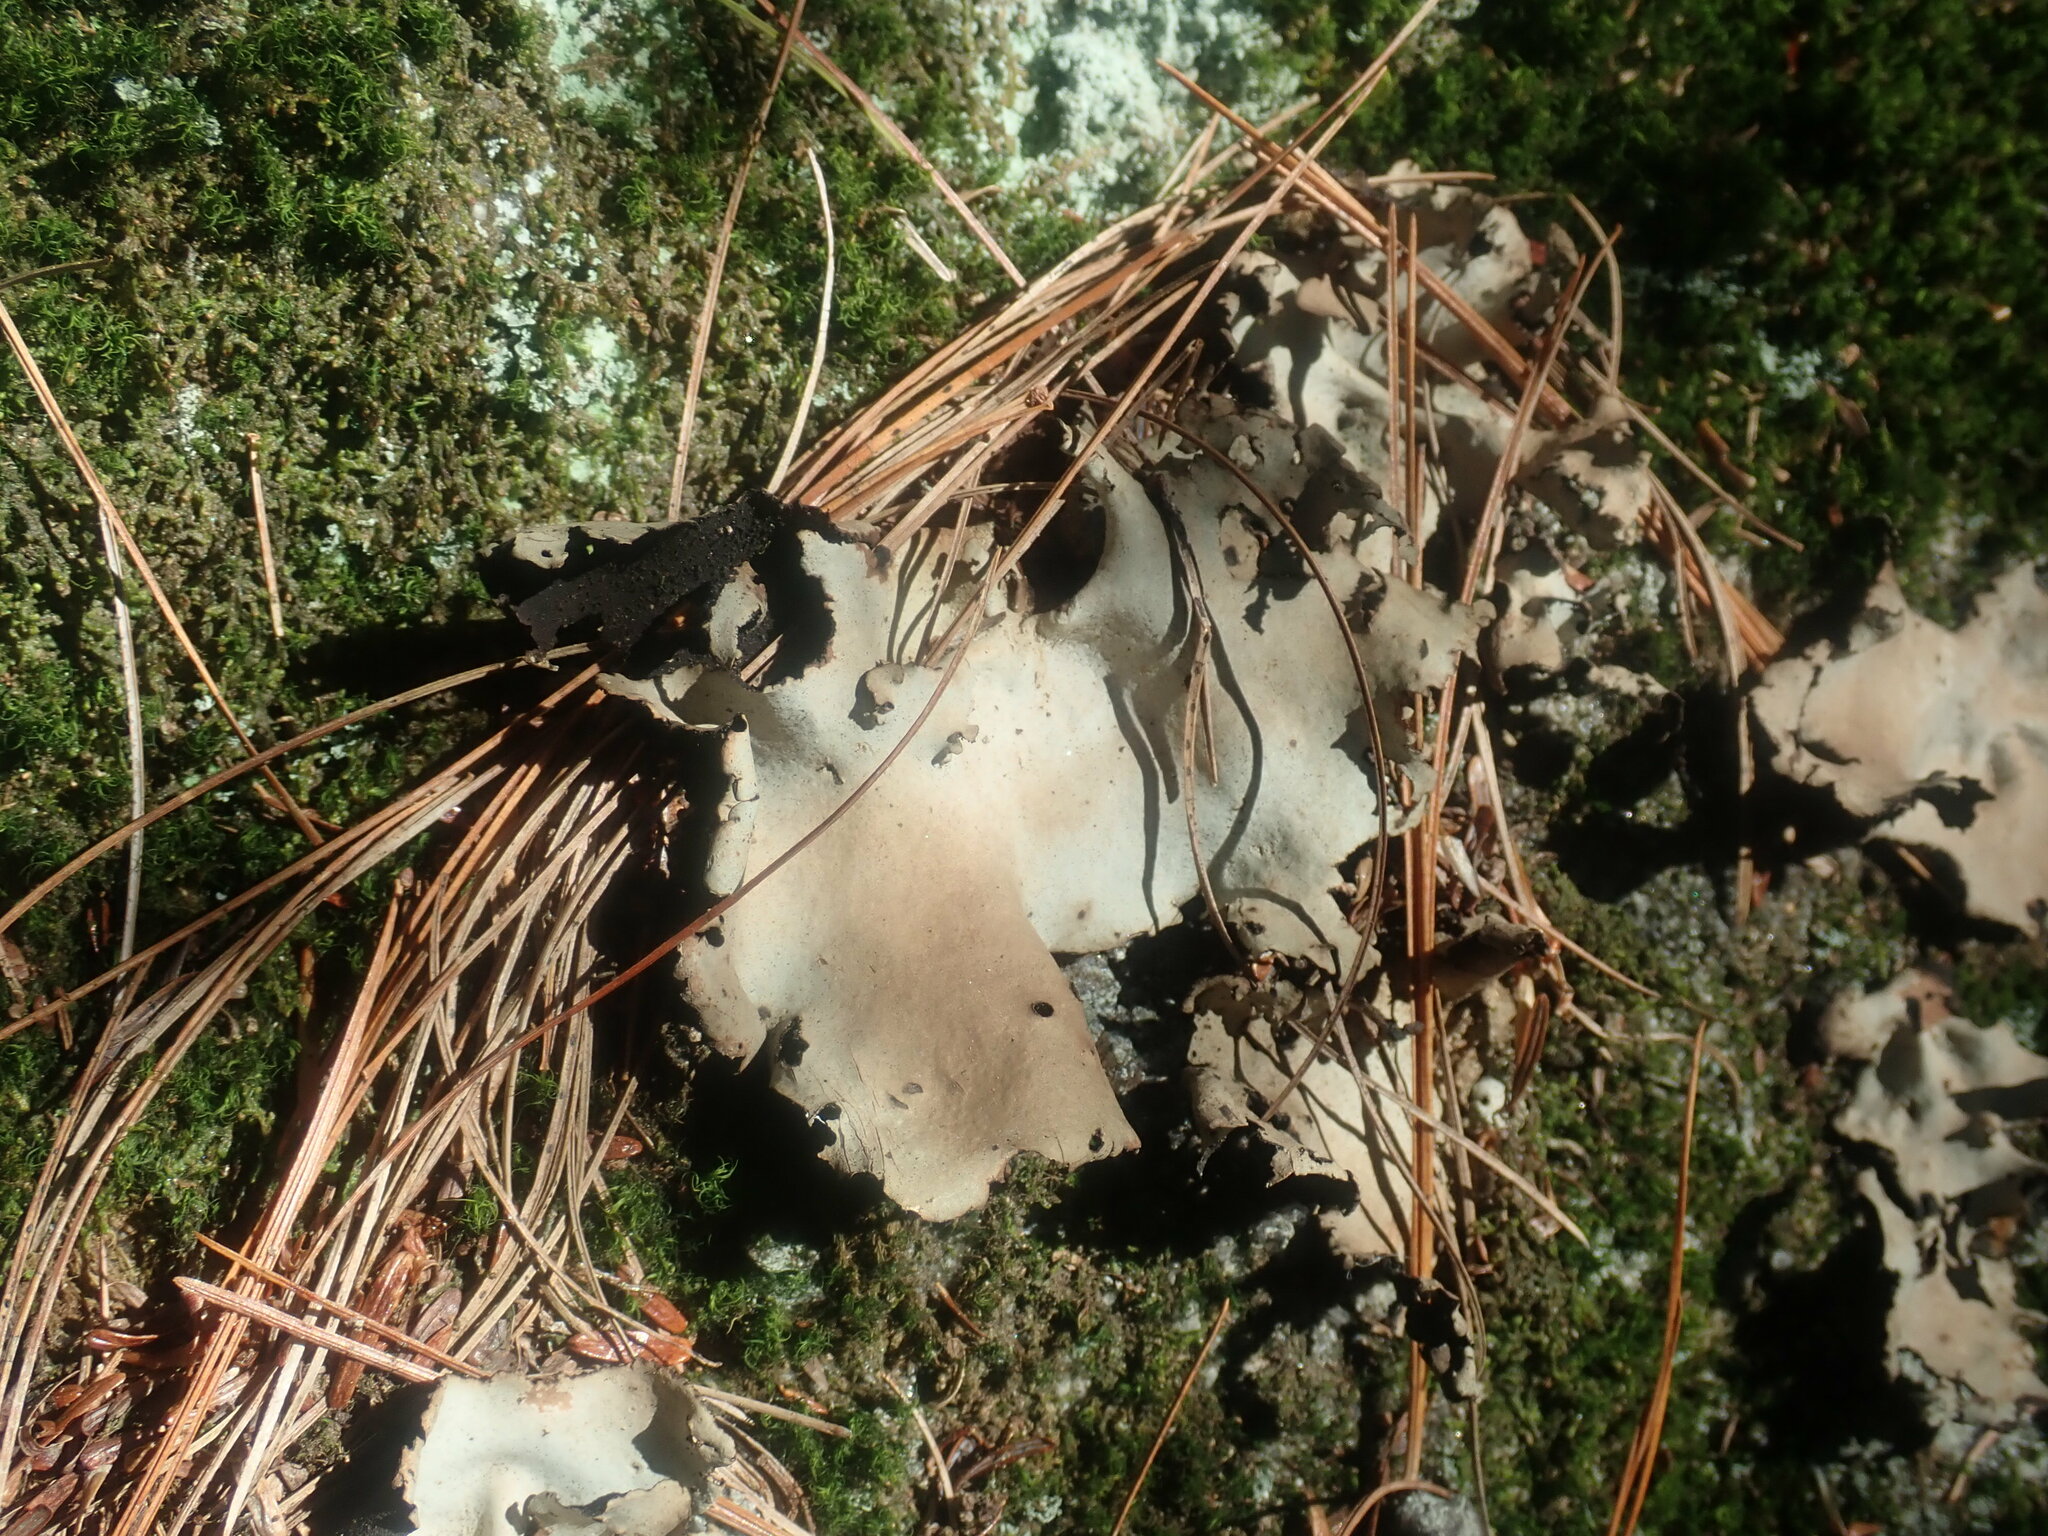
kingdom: Fungi
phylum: Ascomycota
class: Lecanoromycetes
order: Umbilicariales
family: Umbilicariaceae
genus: Umbilicaria
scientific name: Umbilicaria mammulata
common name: Smooth rock tripe
